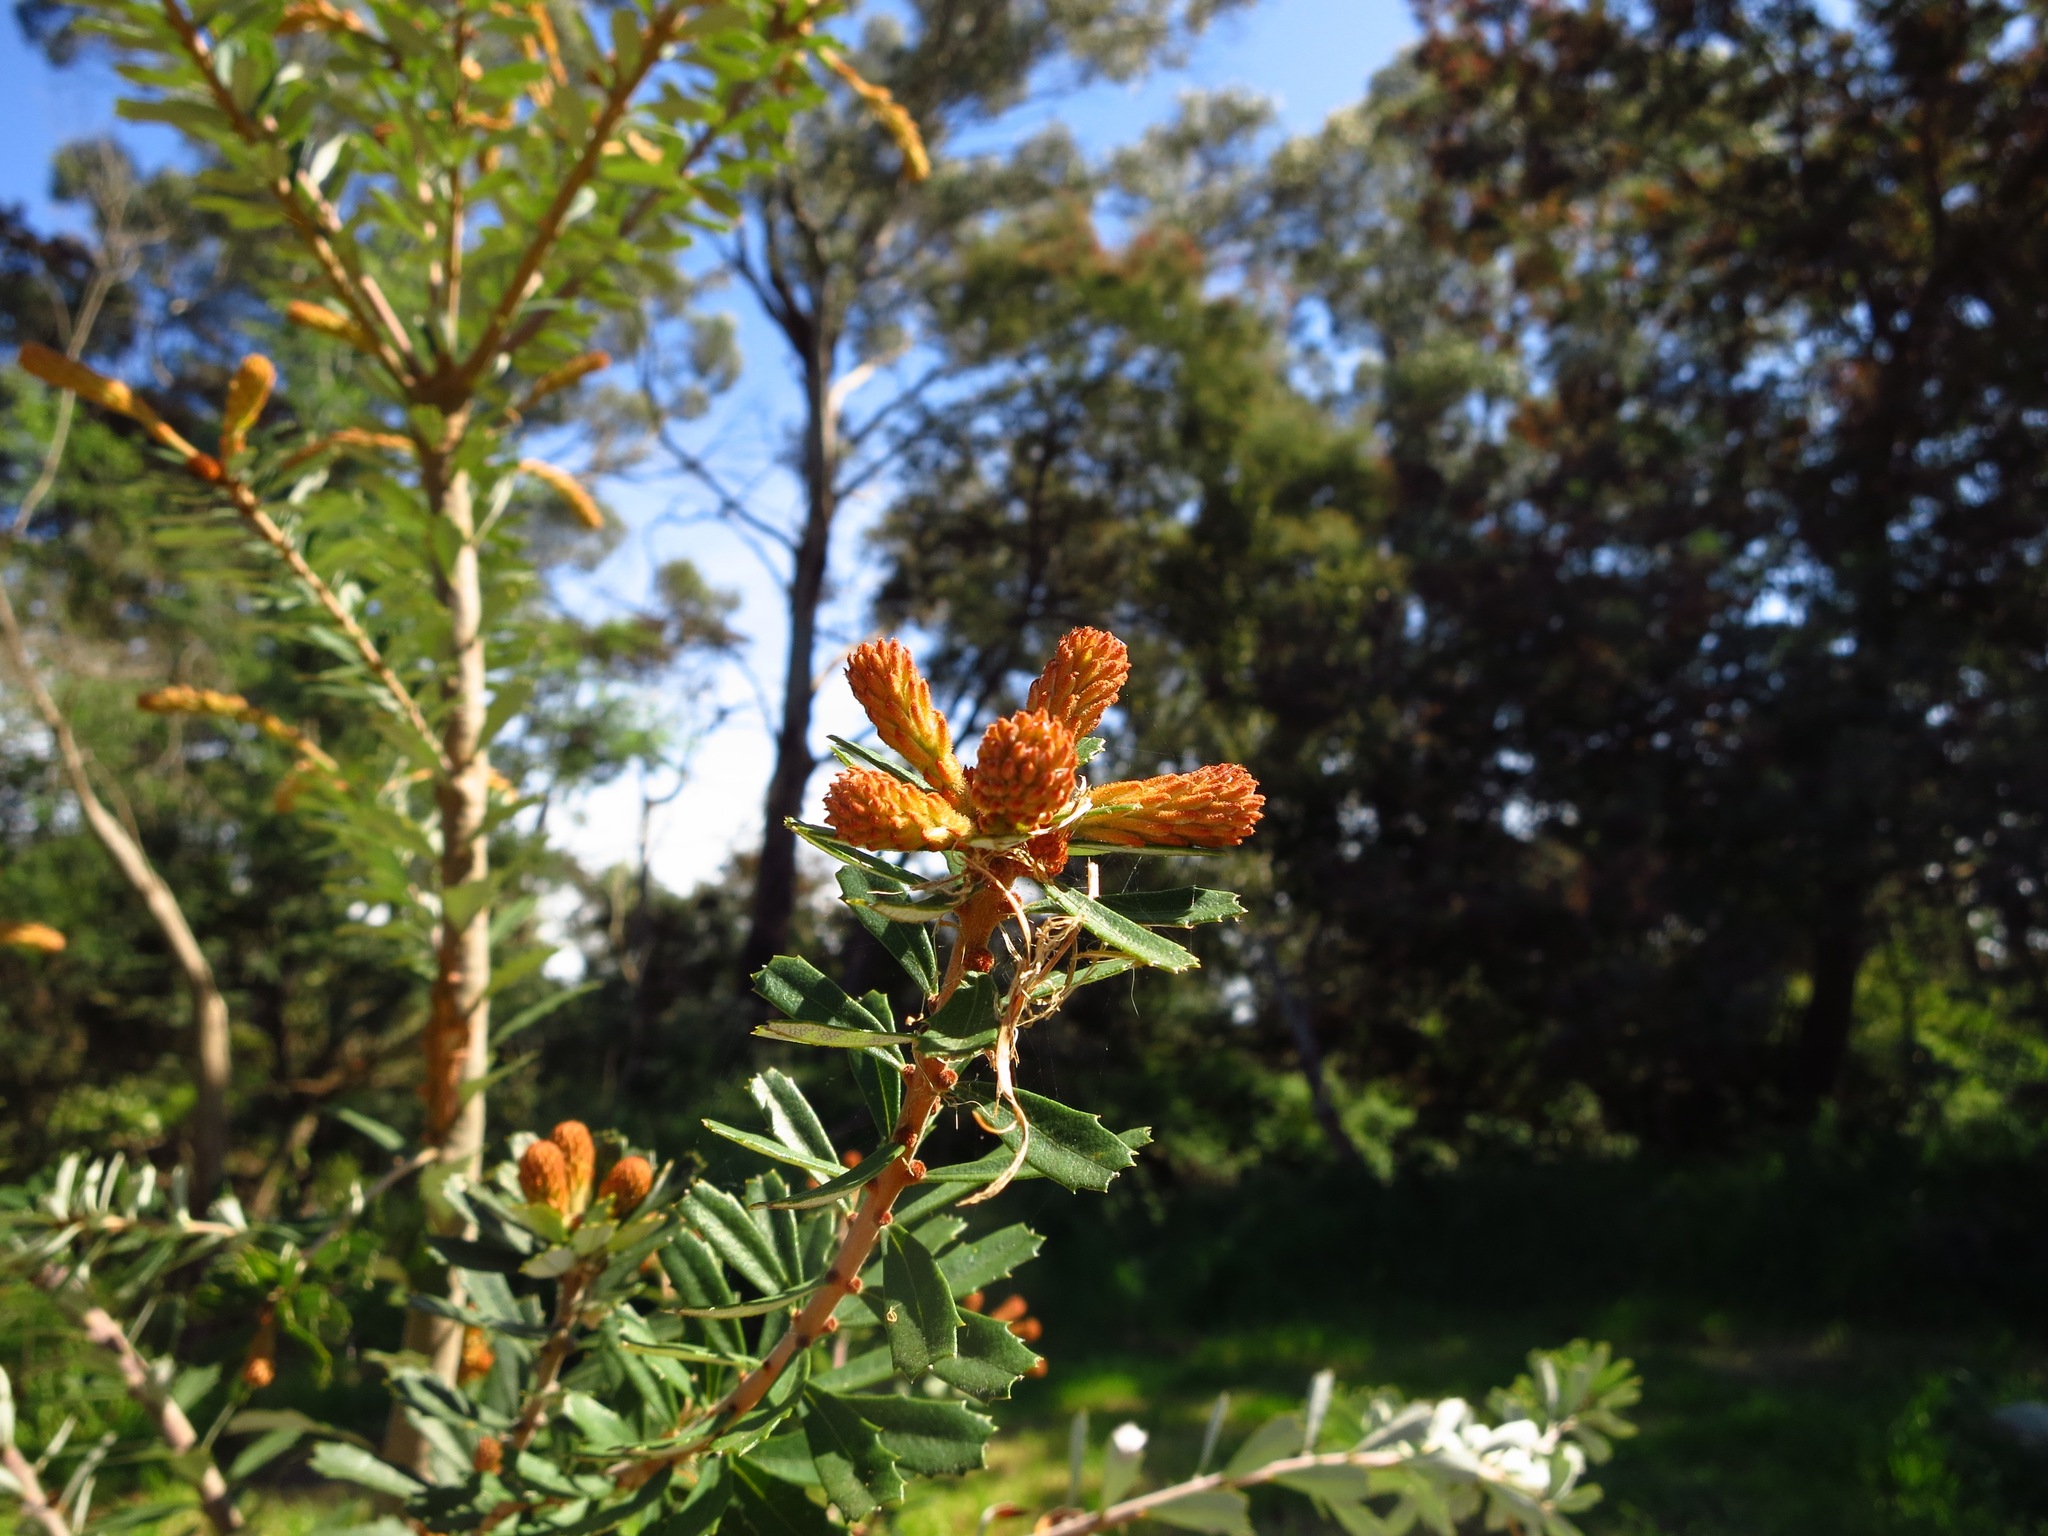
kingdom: Plantae
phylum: Tracheophyta
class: Magnoliopsida
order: Proteales
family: Proteaceae
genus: Banksia
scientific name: Banksia marginata
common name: Silver banksia
